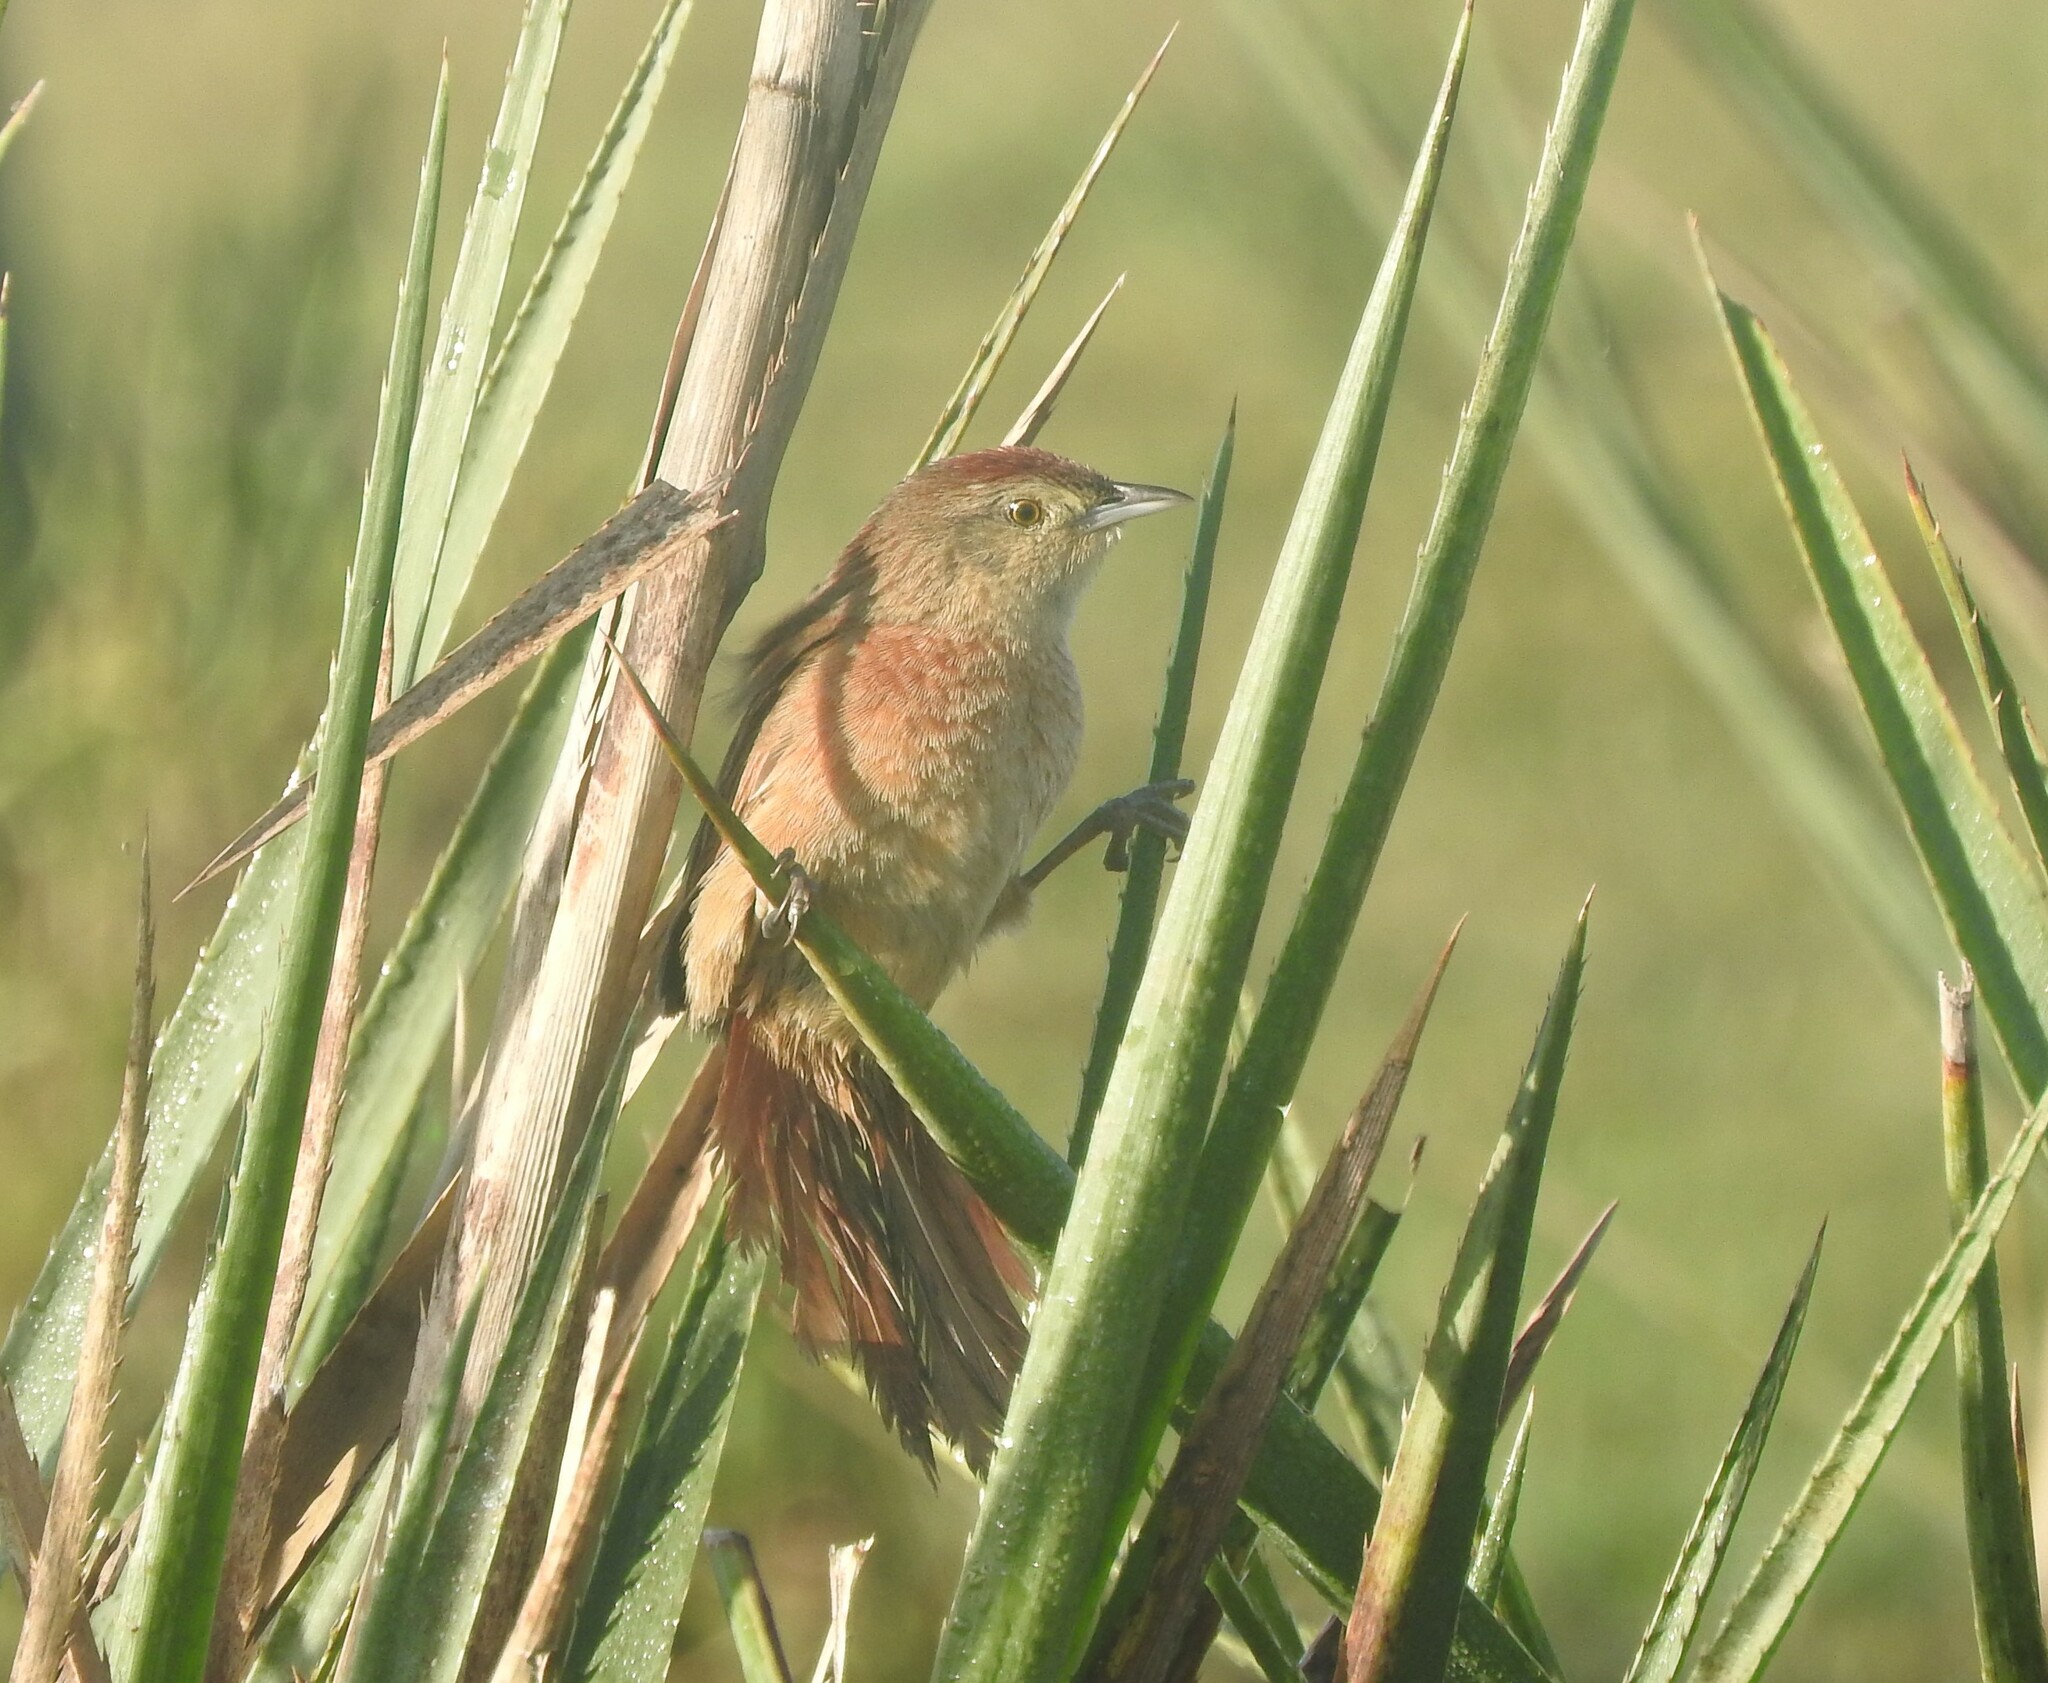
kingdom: Animalia
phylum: Chordata
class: Aves
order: Passeriformes
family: Furnariidae
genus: Phacellodomus
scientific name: Phacellodomus striaticollis
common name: Freckle-breasted thornbird
